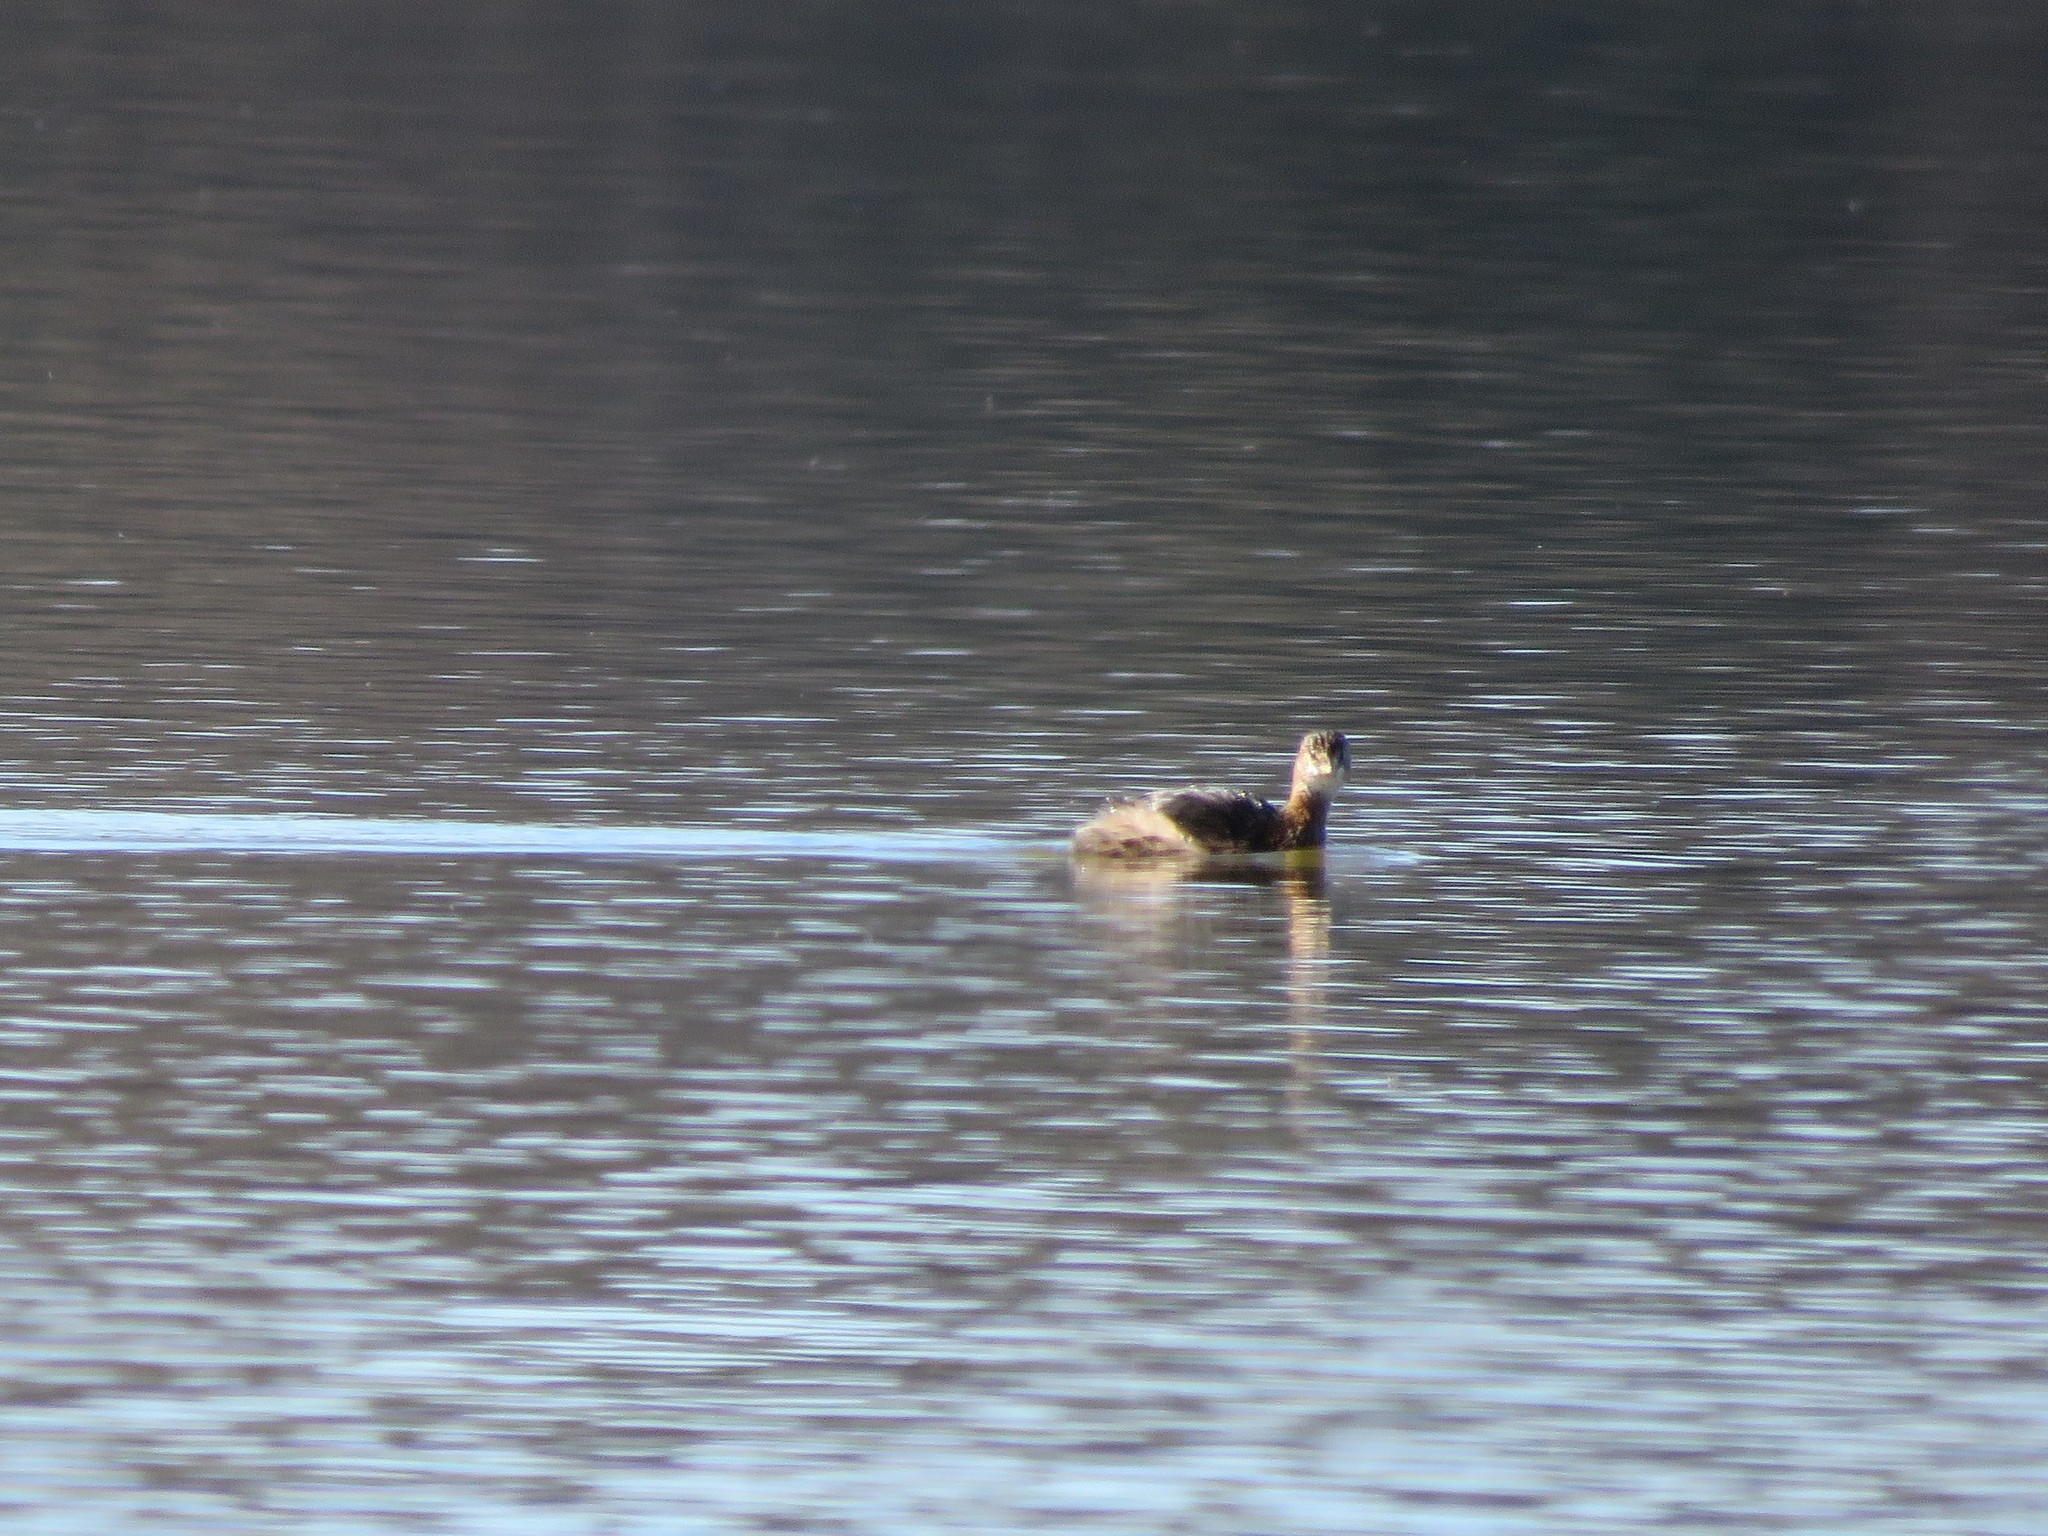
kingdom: Animalia
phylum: Chordata
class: Aves
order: Podicipediformes
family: Podicipedidae
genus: Podilymbus
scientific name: Podilymbus podiceps
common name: Pied-billed grebe
